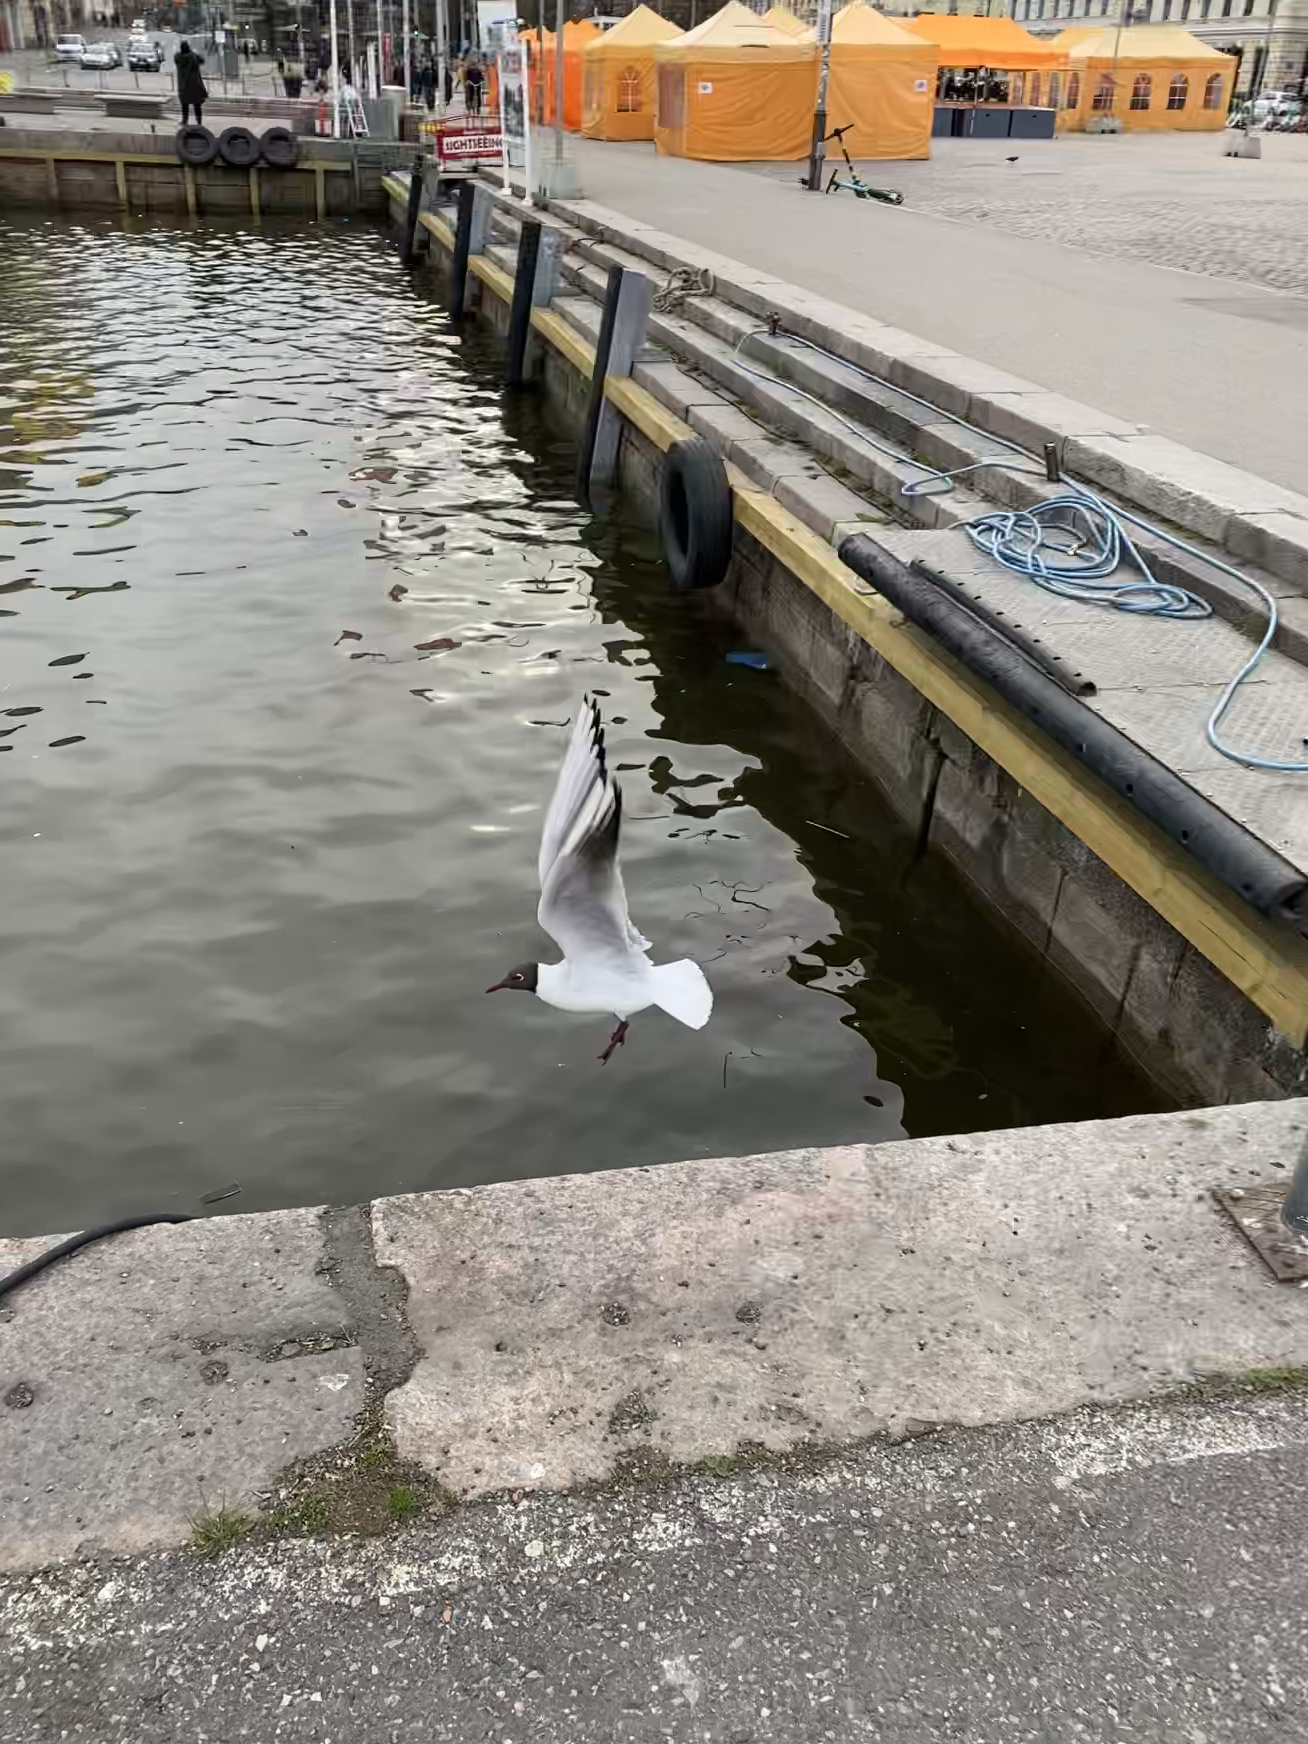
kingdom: Animalia
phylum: Chordata
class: Aves
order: Charadriiformes
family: Laridae
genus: Chroicocephalus
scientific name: Chroicocephalus ridibundus
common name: Black-headed gull
